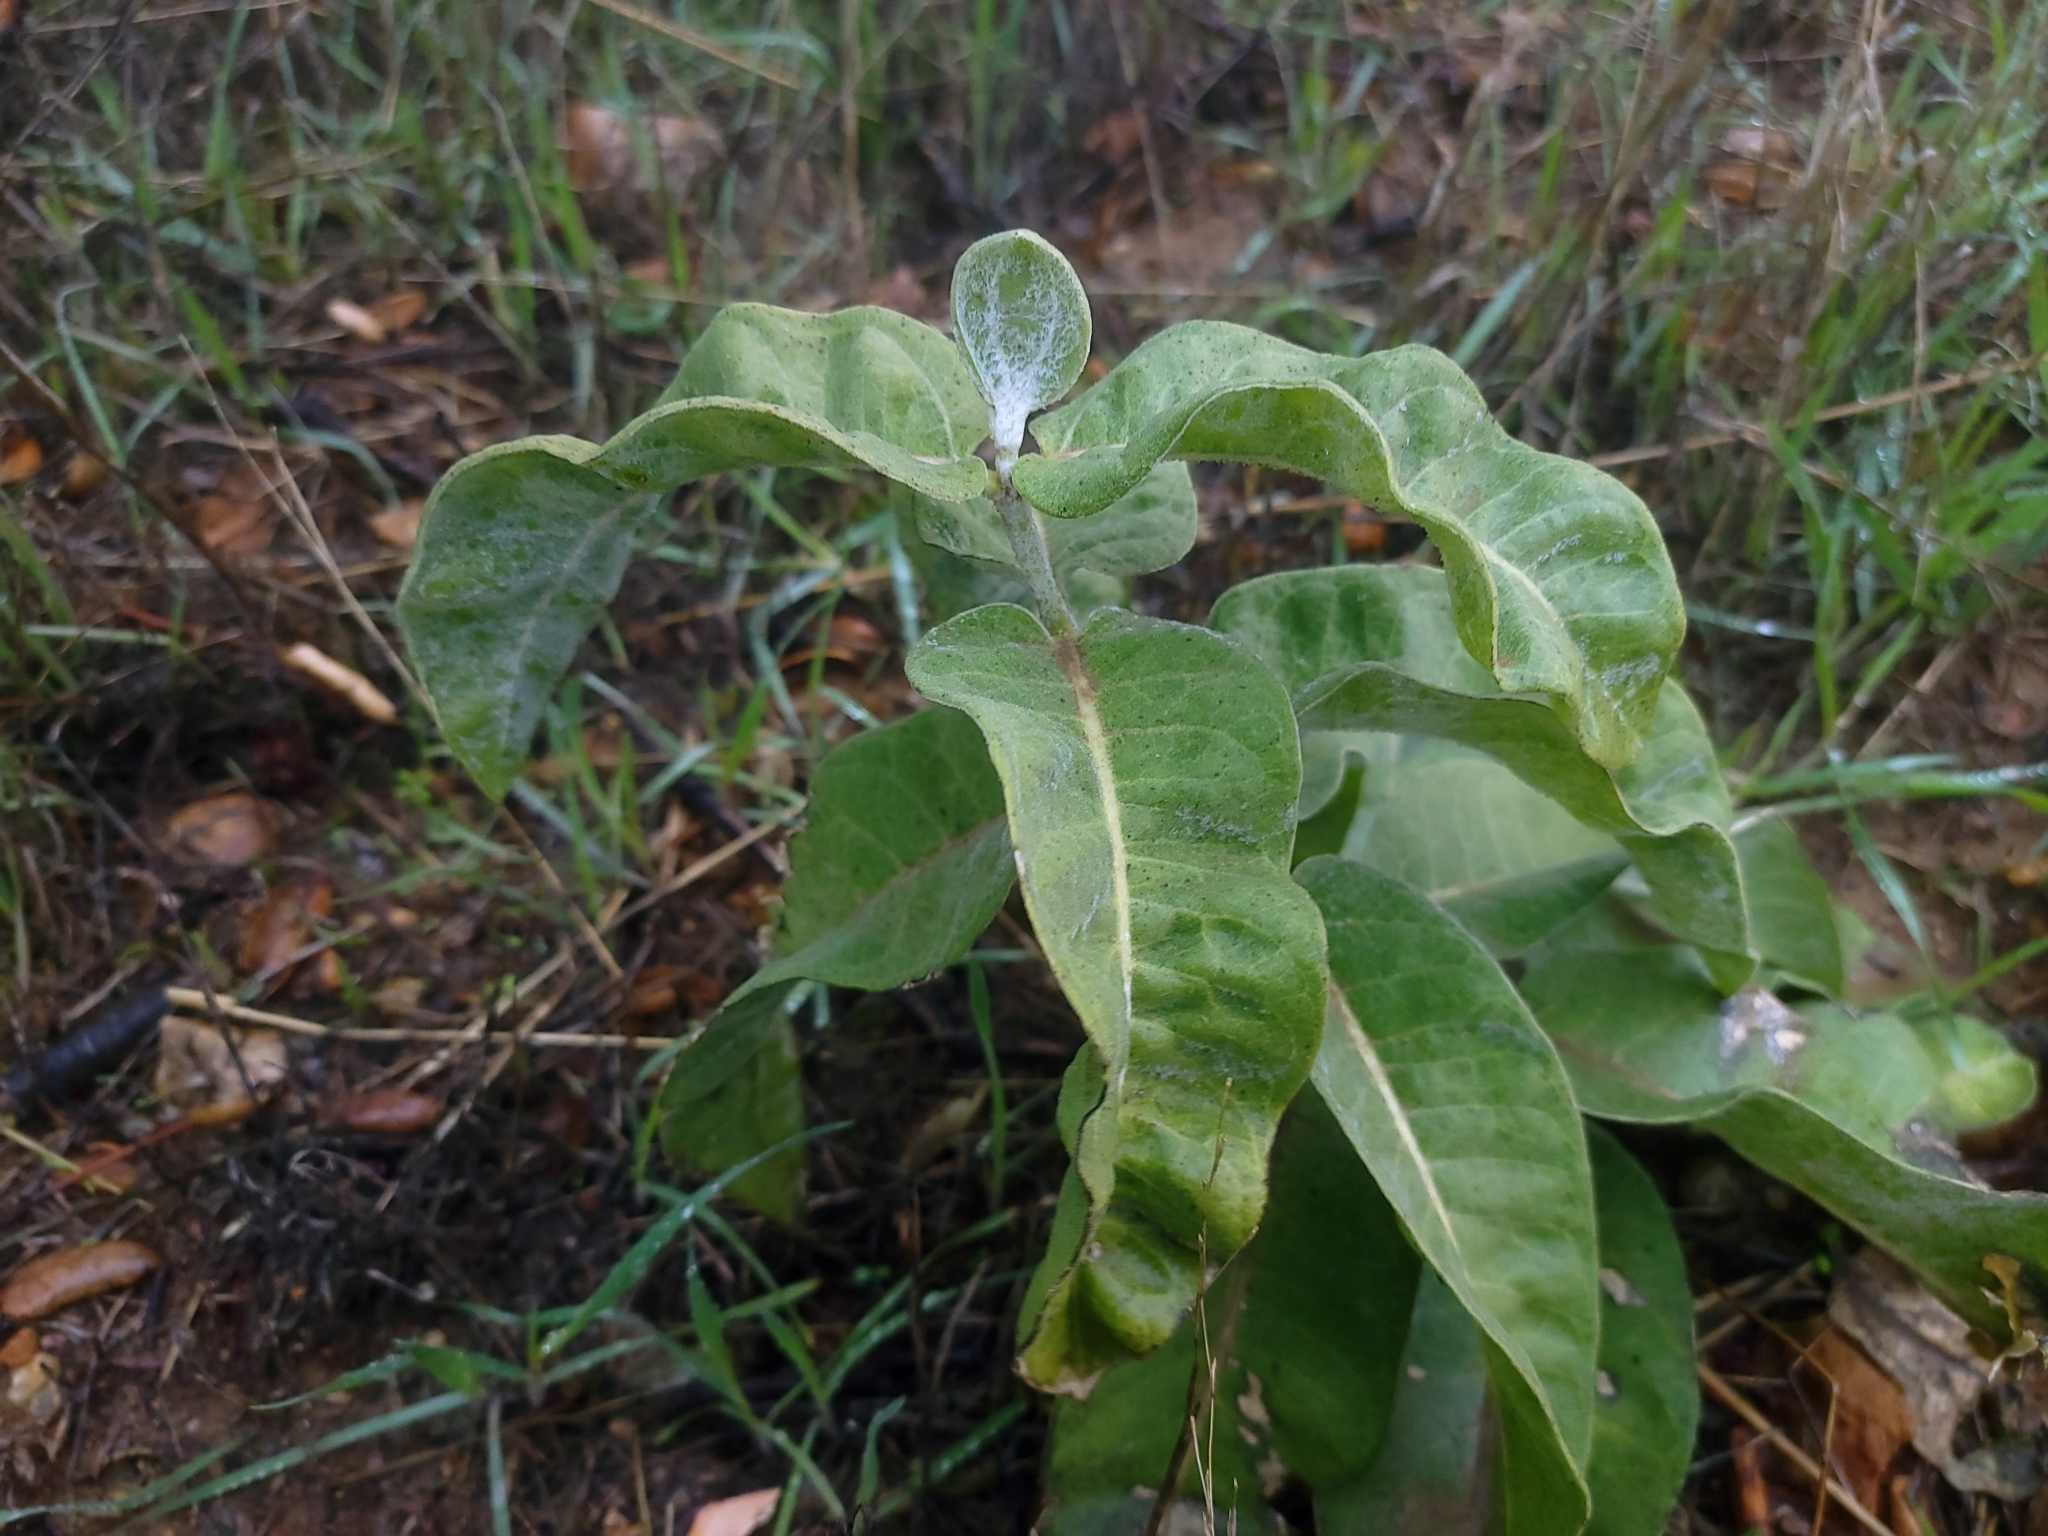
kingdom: Plantae
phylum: Tracheophyta
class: Magnoliopsida
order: Gentianales
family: Apocynaceae
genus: Asclepias
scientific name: Asclepias eriocarpa
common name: Indian milkweed
